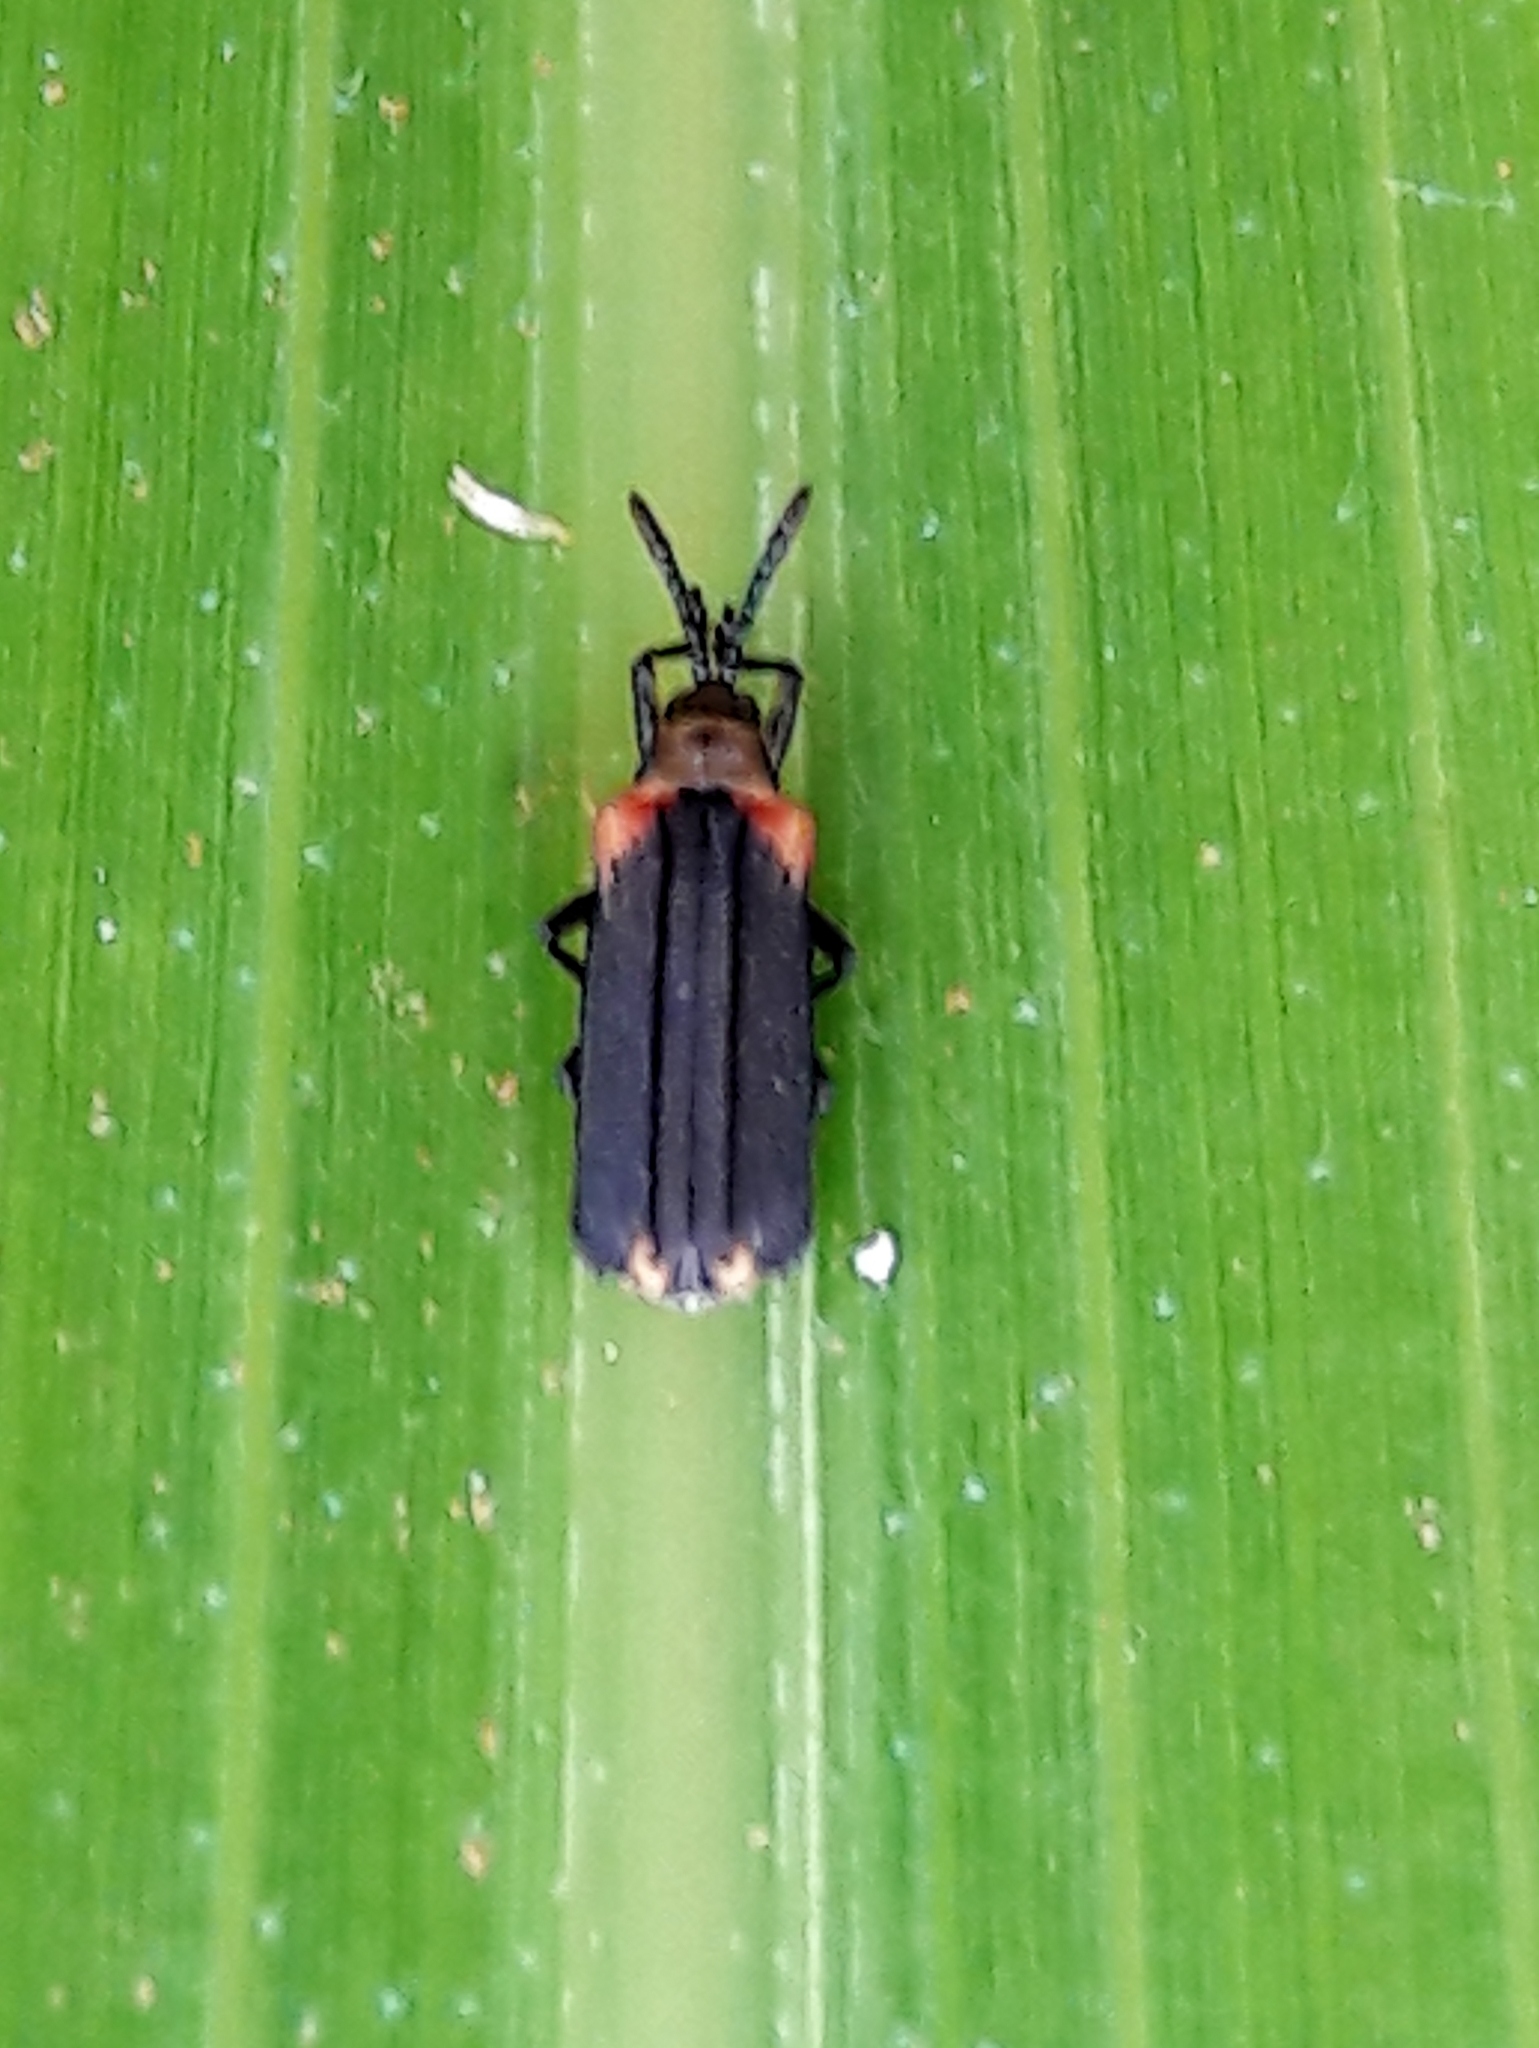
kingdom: Animalia
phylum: Arthropoda
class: Insecta
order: Coleoptera
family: Chrysomelidae
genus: Heterispa
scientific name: Heterispa vinula
